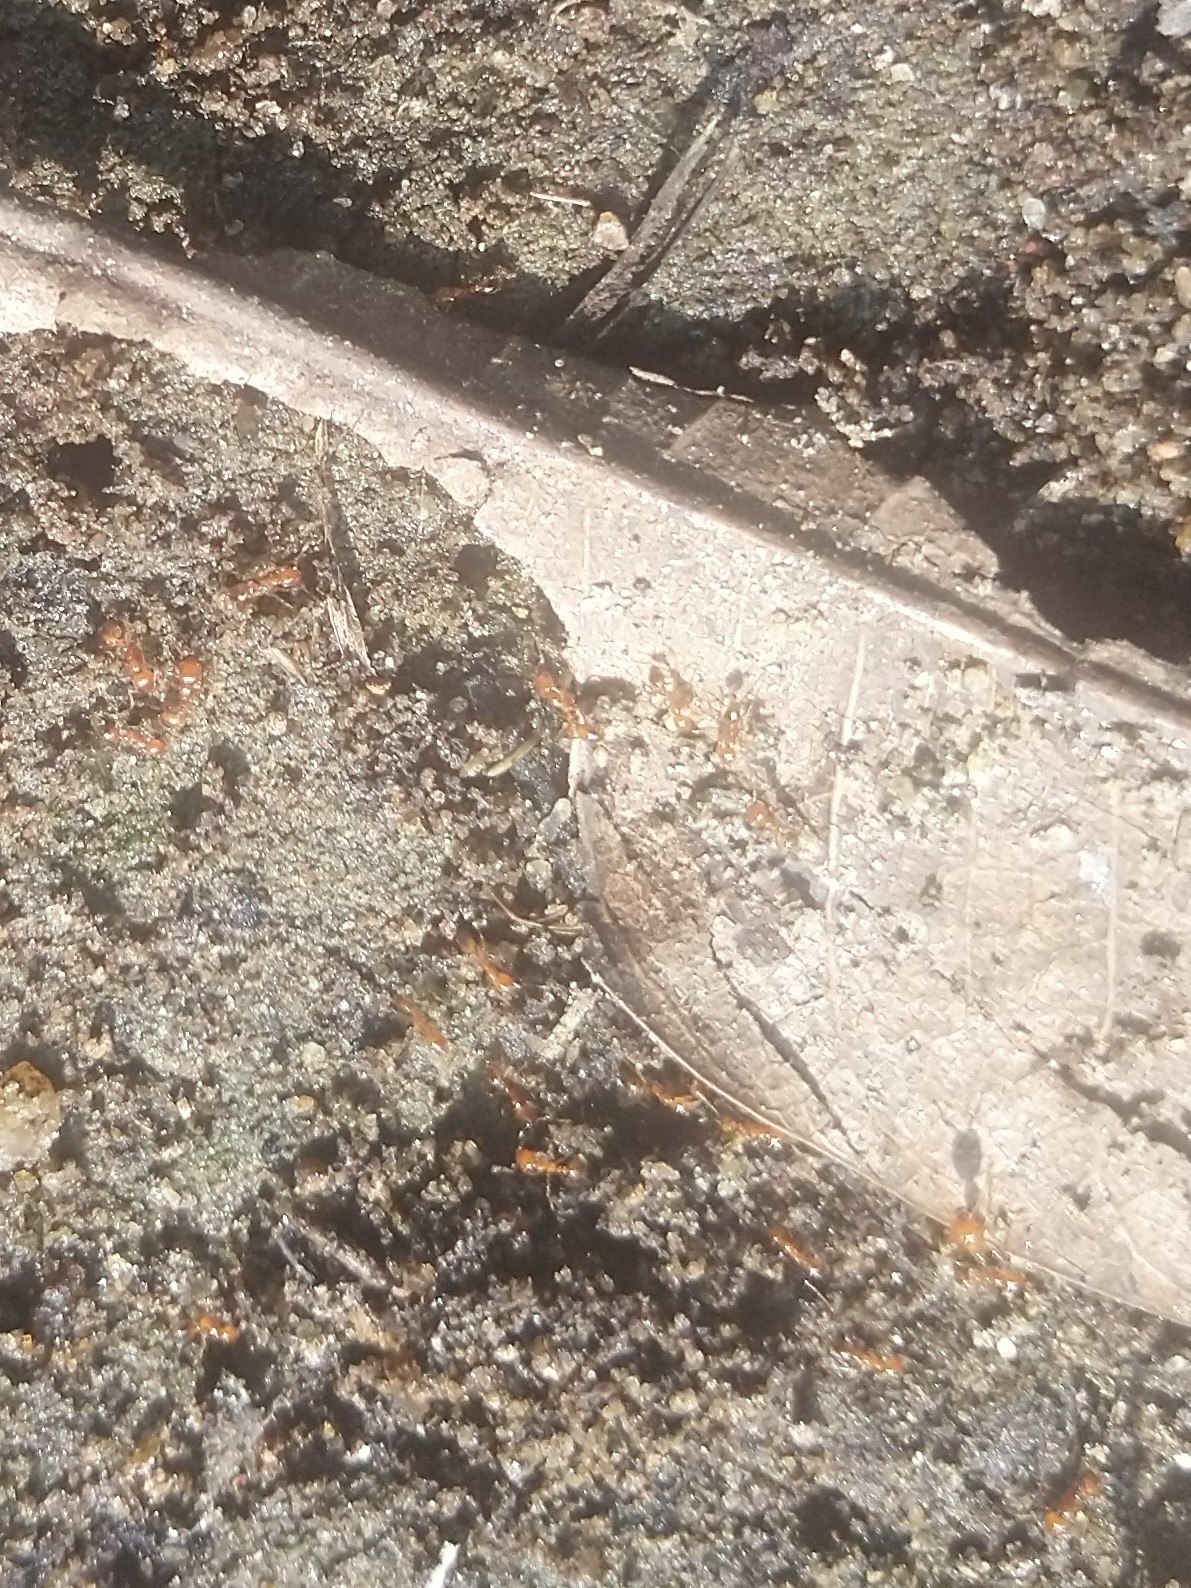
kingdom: Animalia
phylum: Arthropoda
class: Insecta
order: Hymenoptera
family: Formicidae
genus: Solenopsis
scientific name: Solenopsis geminata
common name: Tropical fire ant
